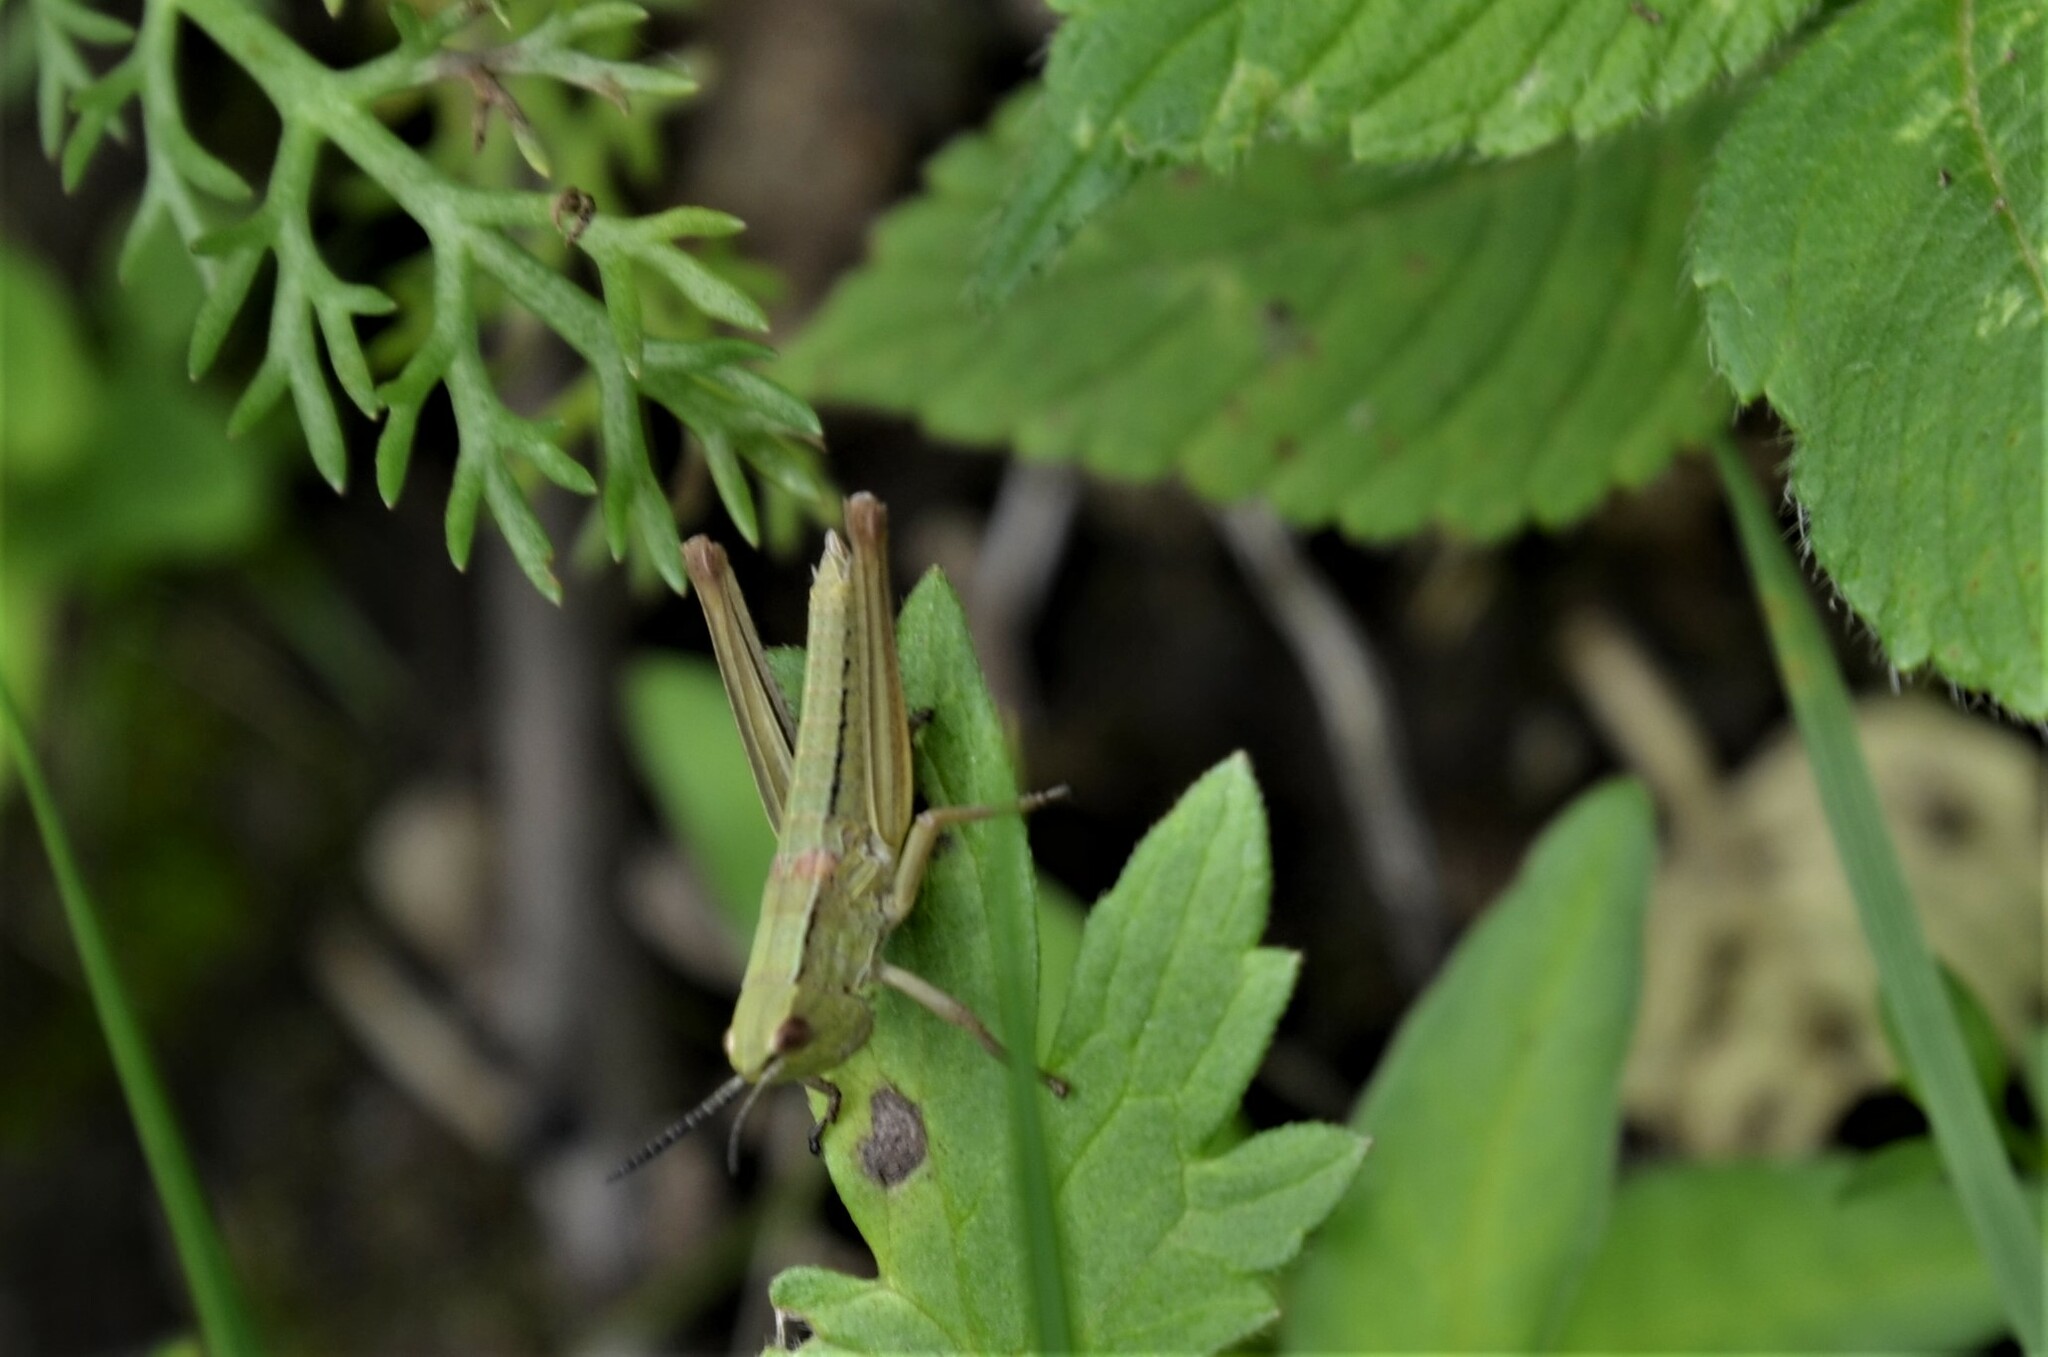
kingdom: Animalia
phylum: Arthropoda
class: Insecta
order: Orthoptera
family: Acrididae
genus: Euthystira
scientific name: Euthystira brachyptera
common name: Small gold grasshopper
